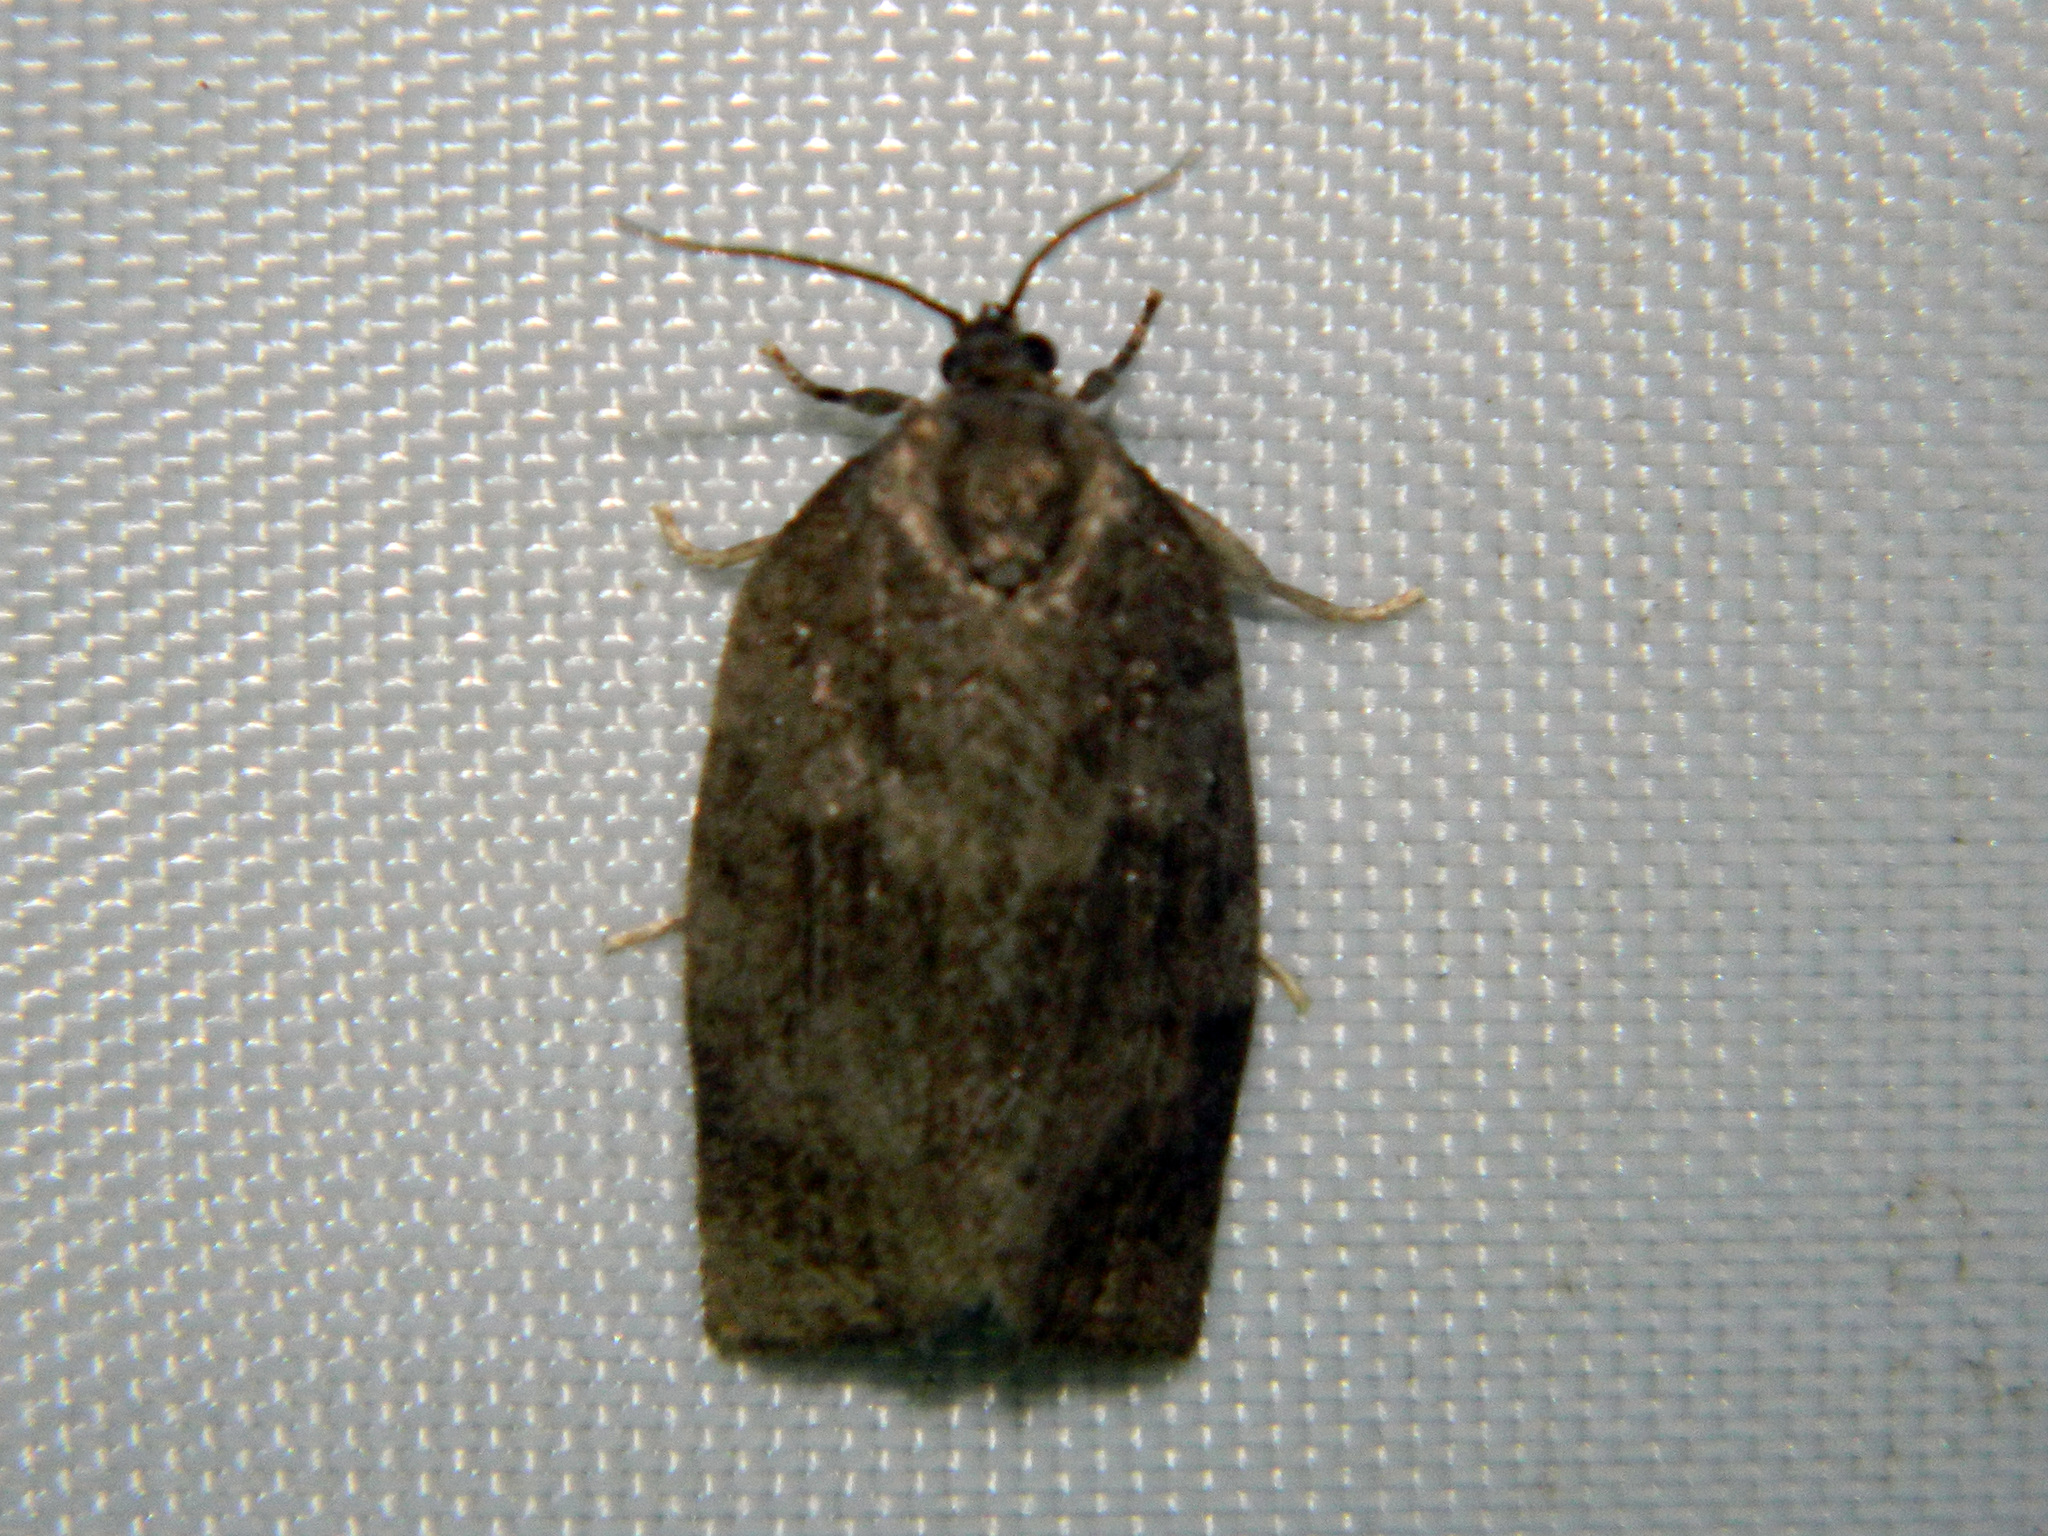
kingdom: Animalia
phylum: Arthropoda
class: Insecta
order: Lepidoptera
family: Tortricidae
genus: Choristoneura
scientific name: Choristoneura conflictana
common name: Large aspen tortrix
